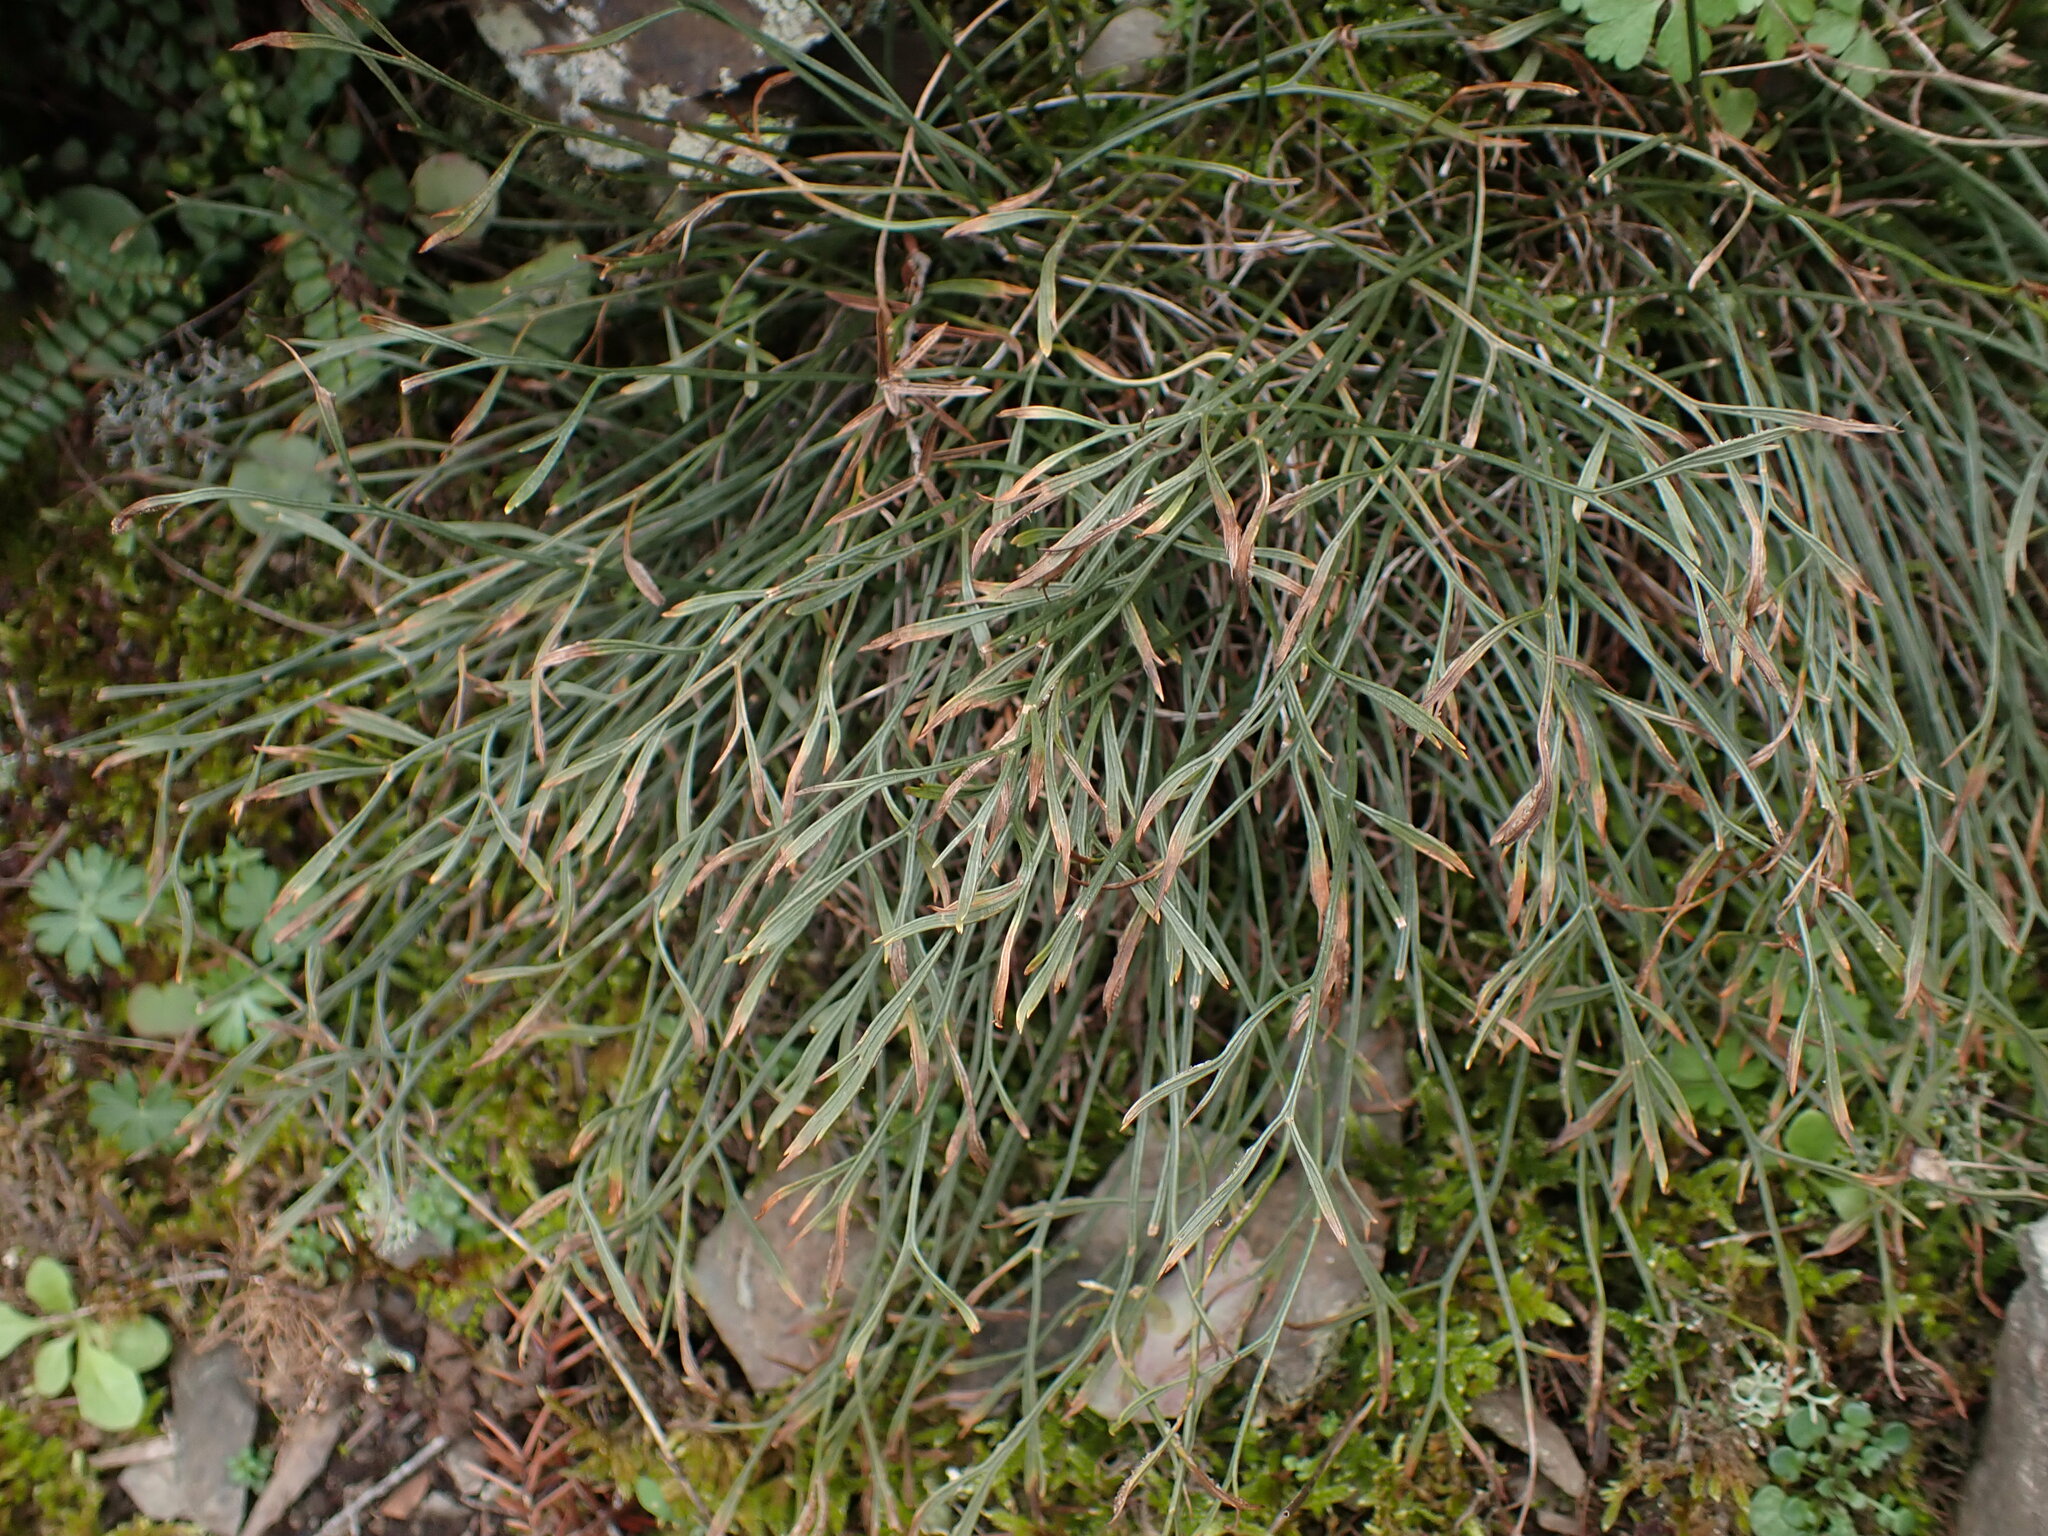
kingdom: Plantae
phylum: Tracheophyta
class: Polypodiopsida
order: Polypodiales
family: Aspleniaceae
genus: Asplenium
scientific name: Asplenium septentrionale
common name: Forked spleenwort
